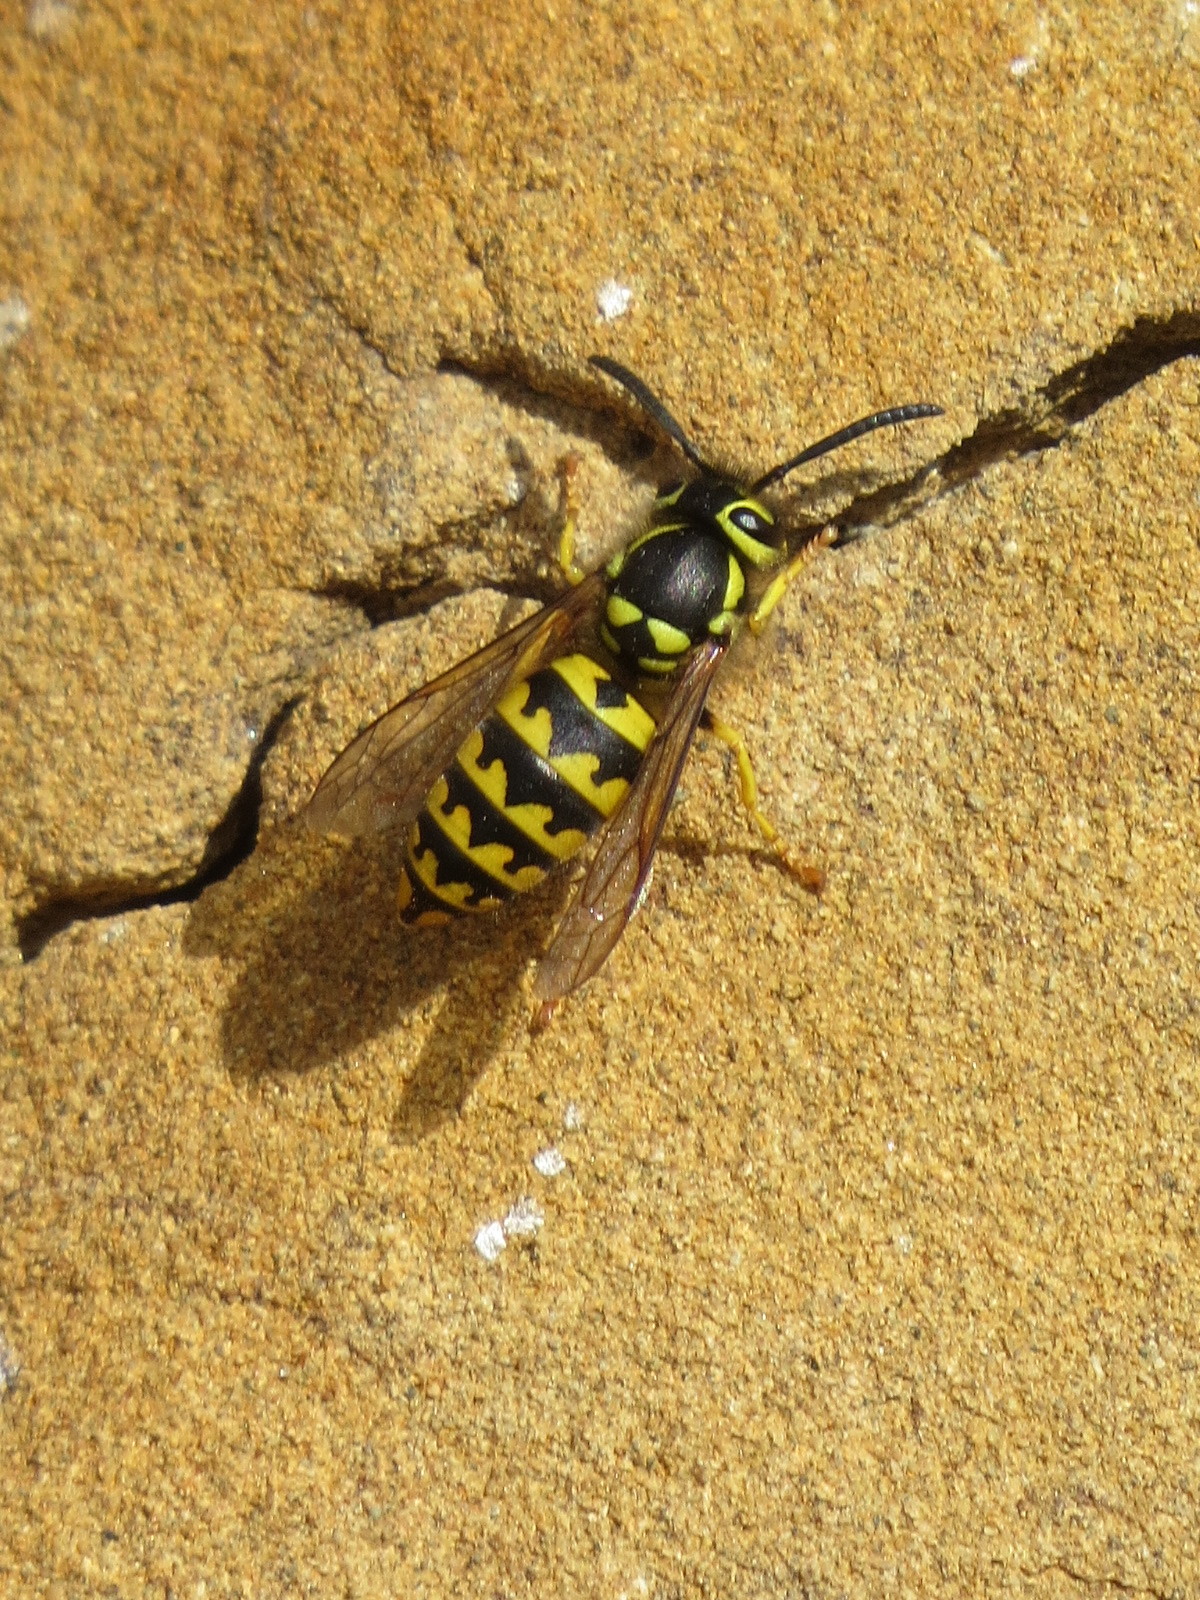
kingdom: Animalia
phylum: Arthropoda
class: Insecta
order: Hymenoptera
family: Vespidae
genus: Vespula
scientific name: Vespula pensylvanica
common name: Western yellowjacket
